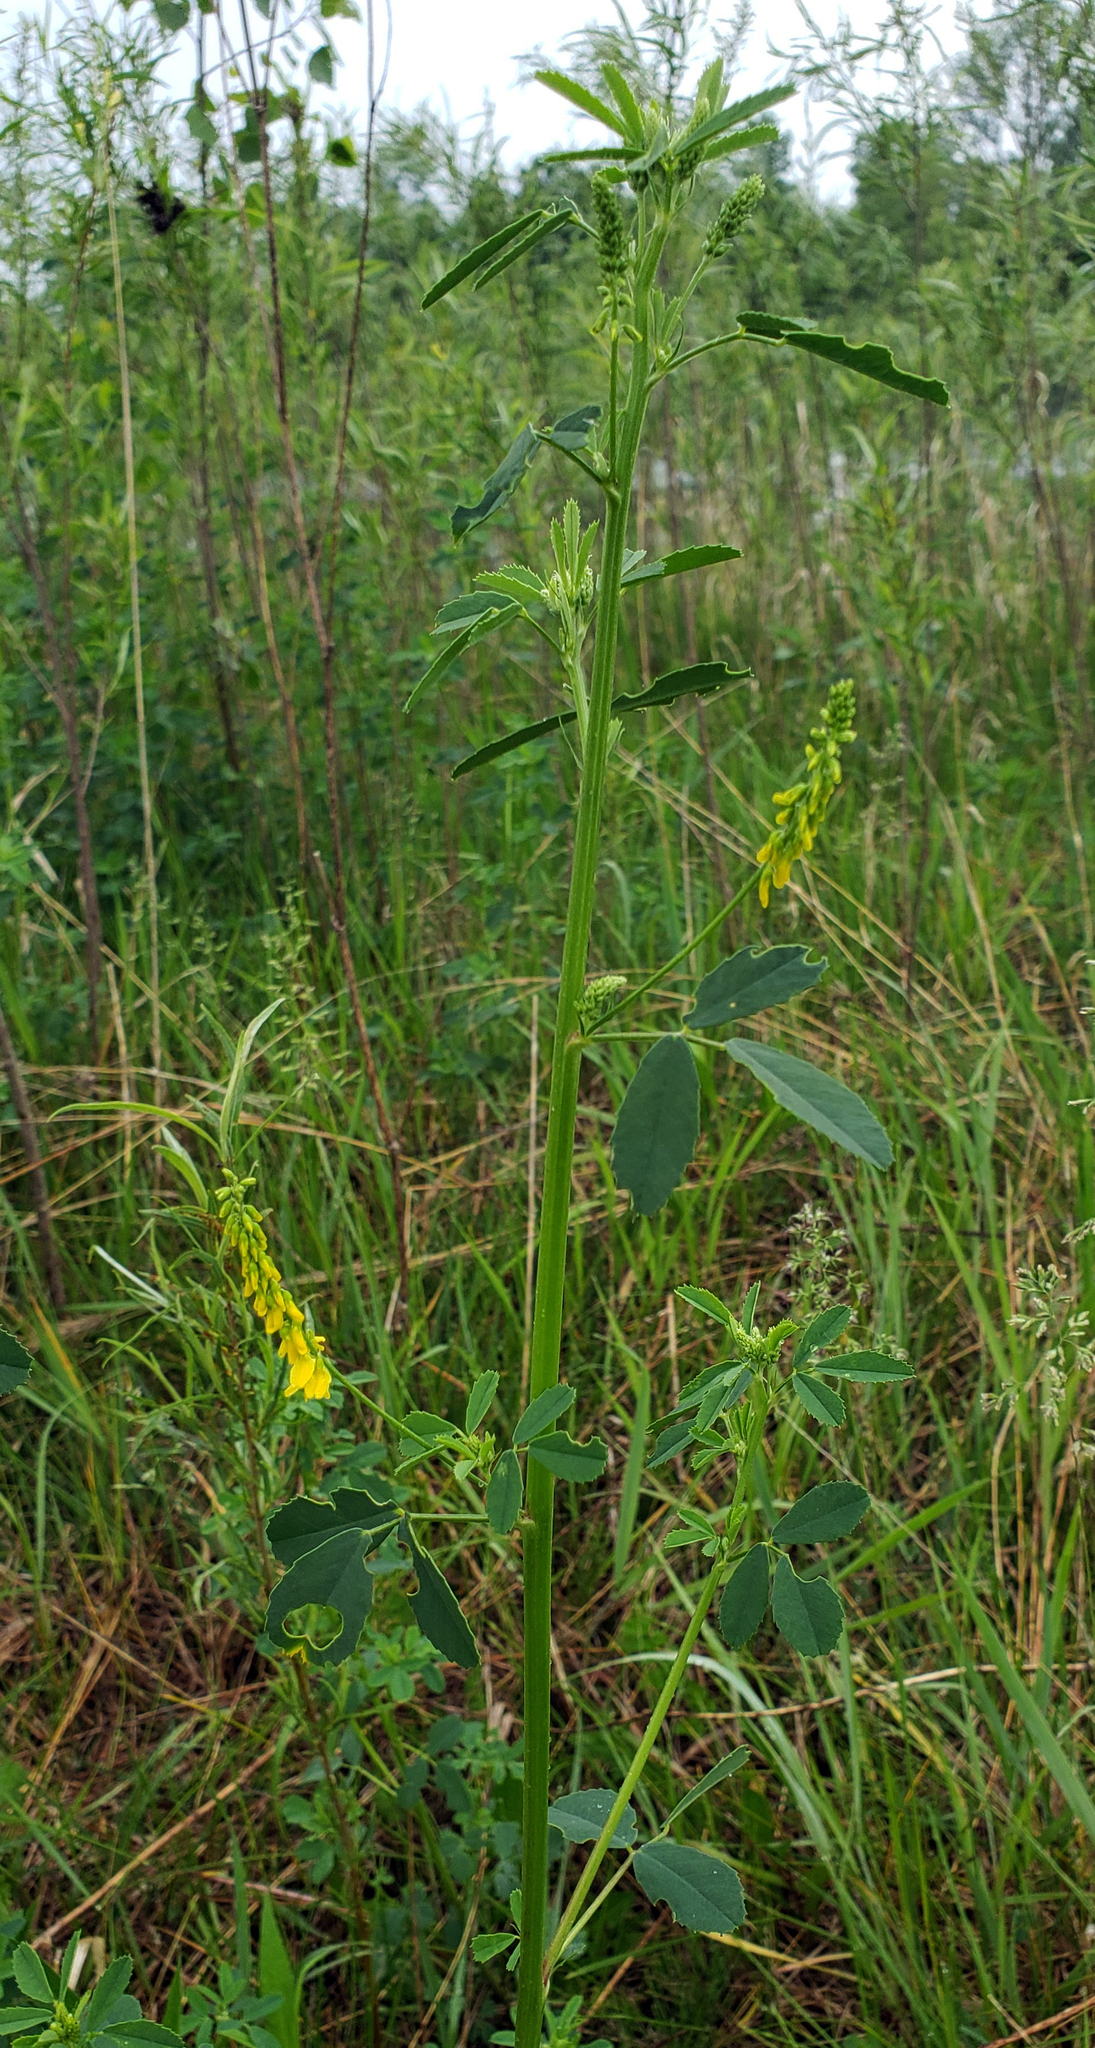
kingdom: Plantae
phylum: Tracheophyta
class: Magnoliopsida
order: Fabales
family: Fabaceae
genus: Melilotus
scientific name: Melilotus officinalis
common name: Sweetclover
